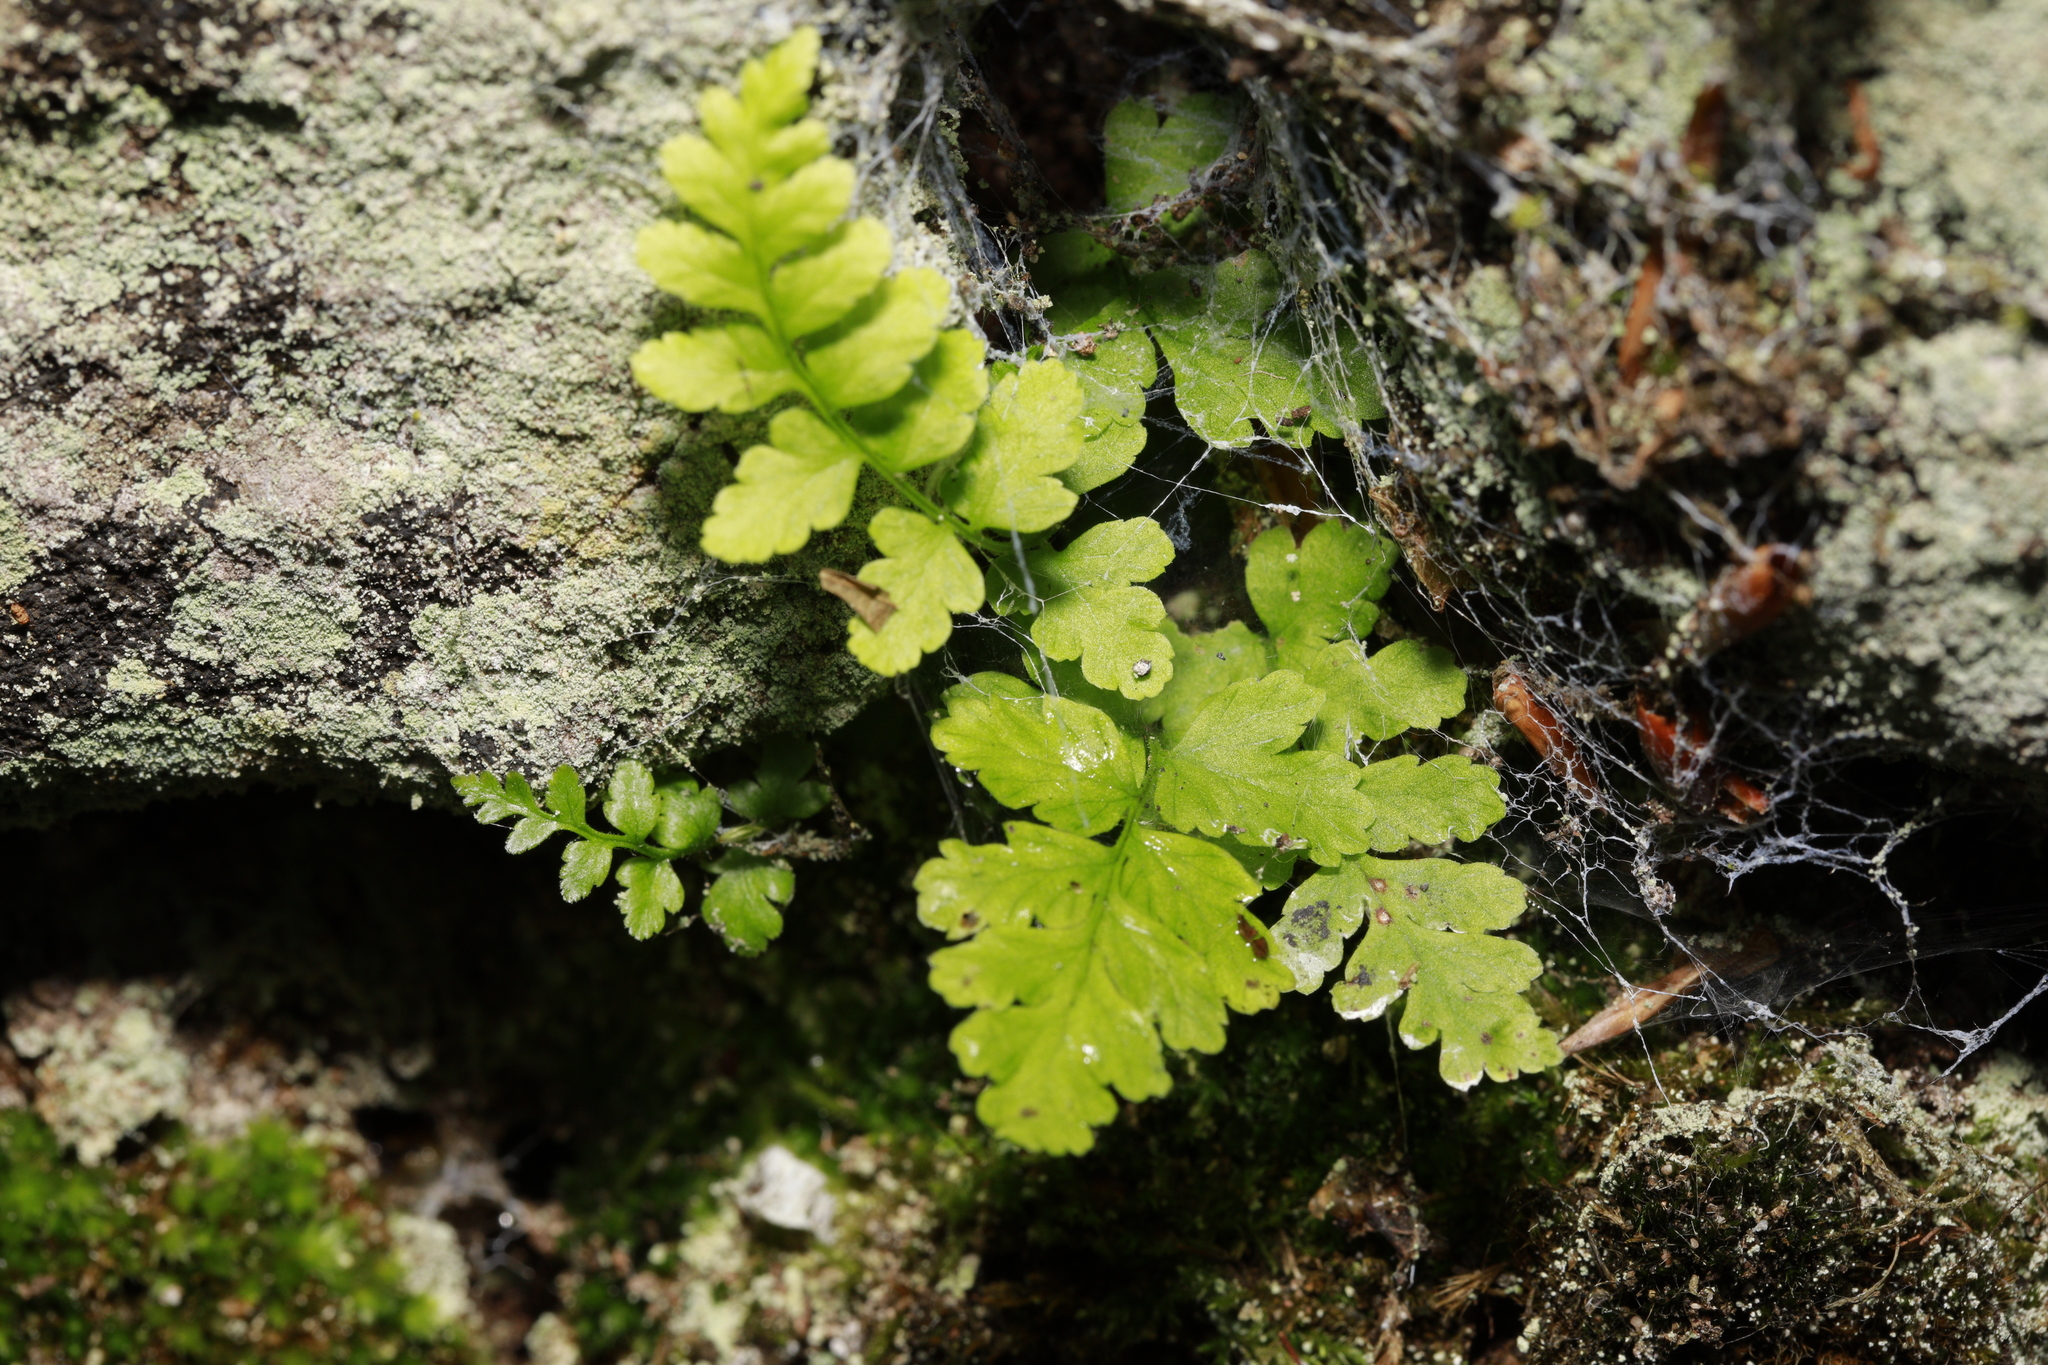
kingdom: Plantae
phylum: Tracheophyta
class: Polypodiopsida
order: Polypodiales
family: Aspleniaceae
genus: Asplenium
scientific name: Asplenium adiantum-nigrum
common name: Black spleenwort
